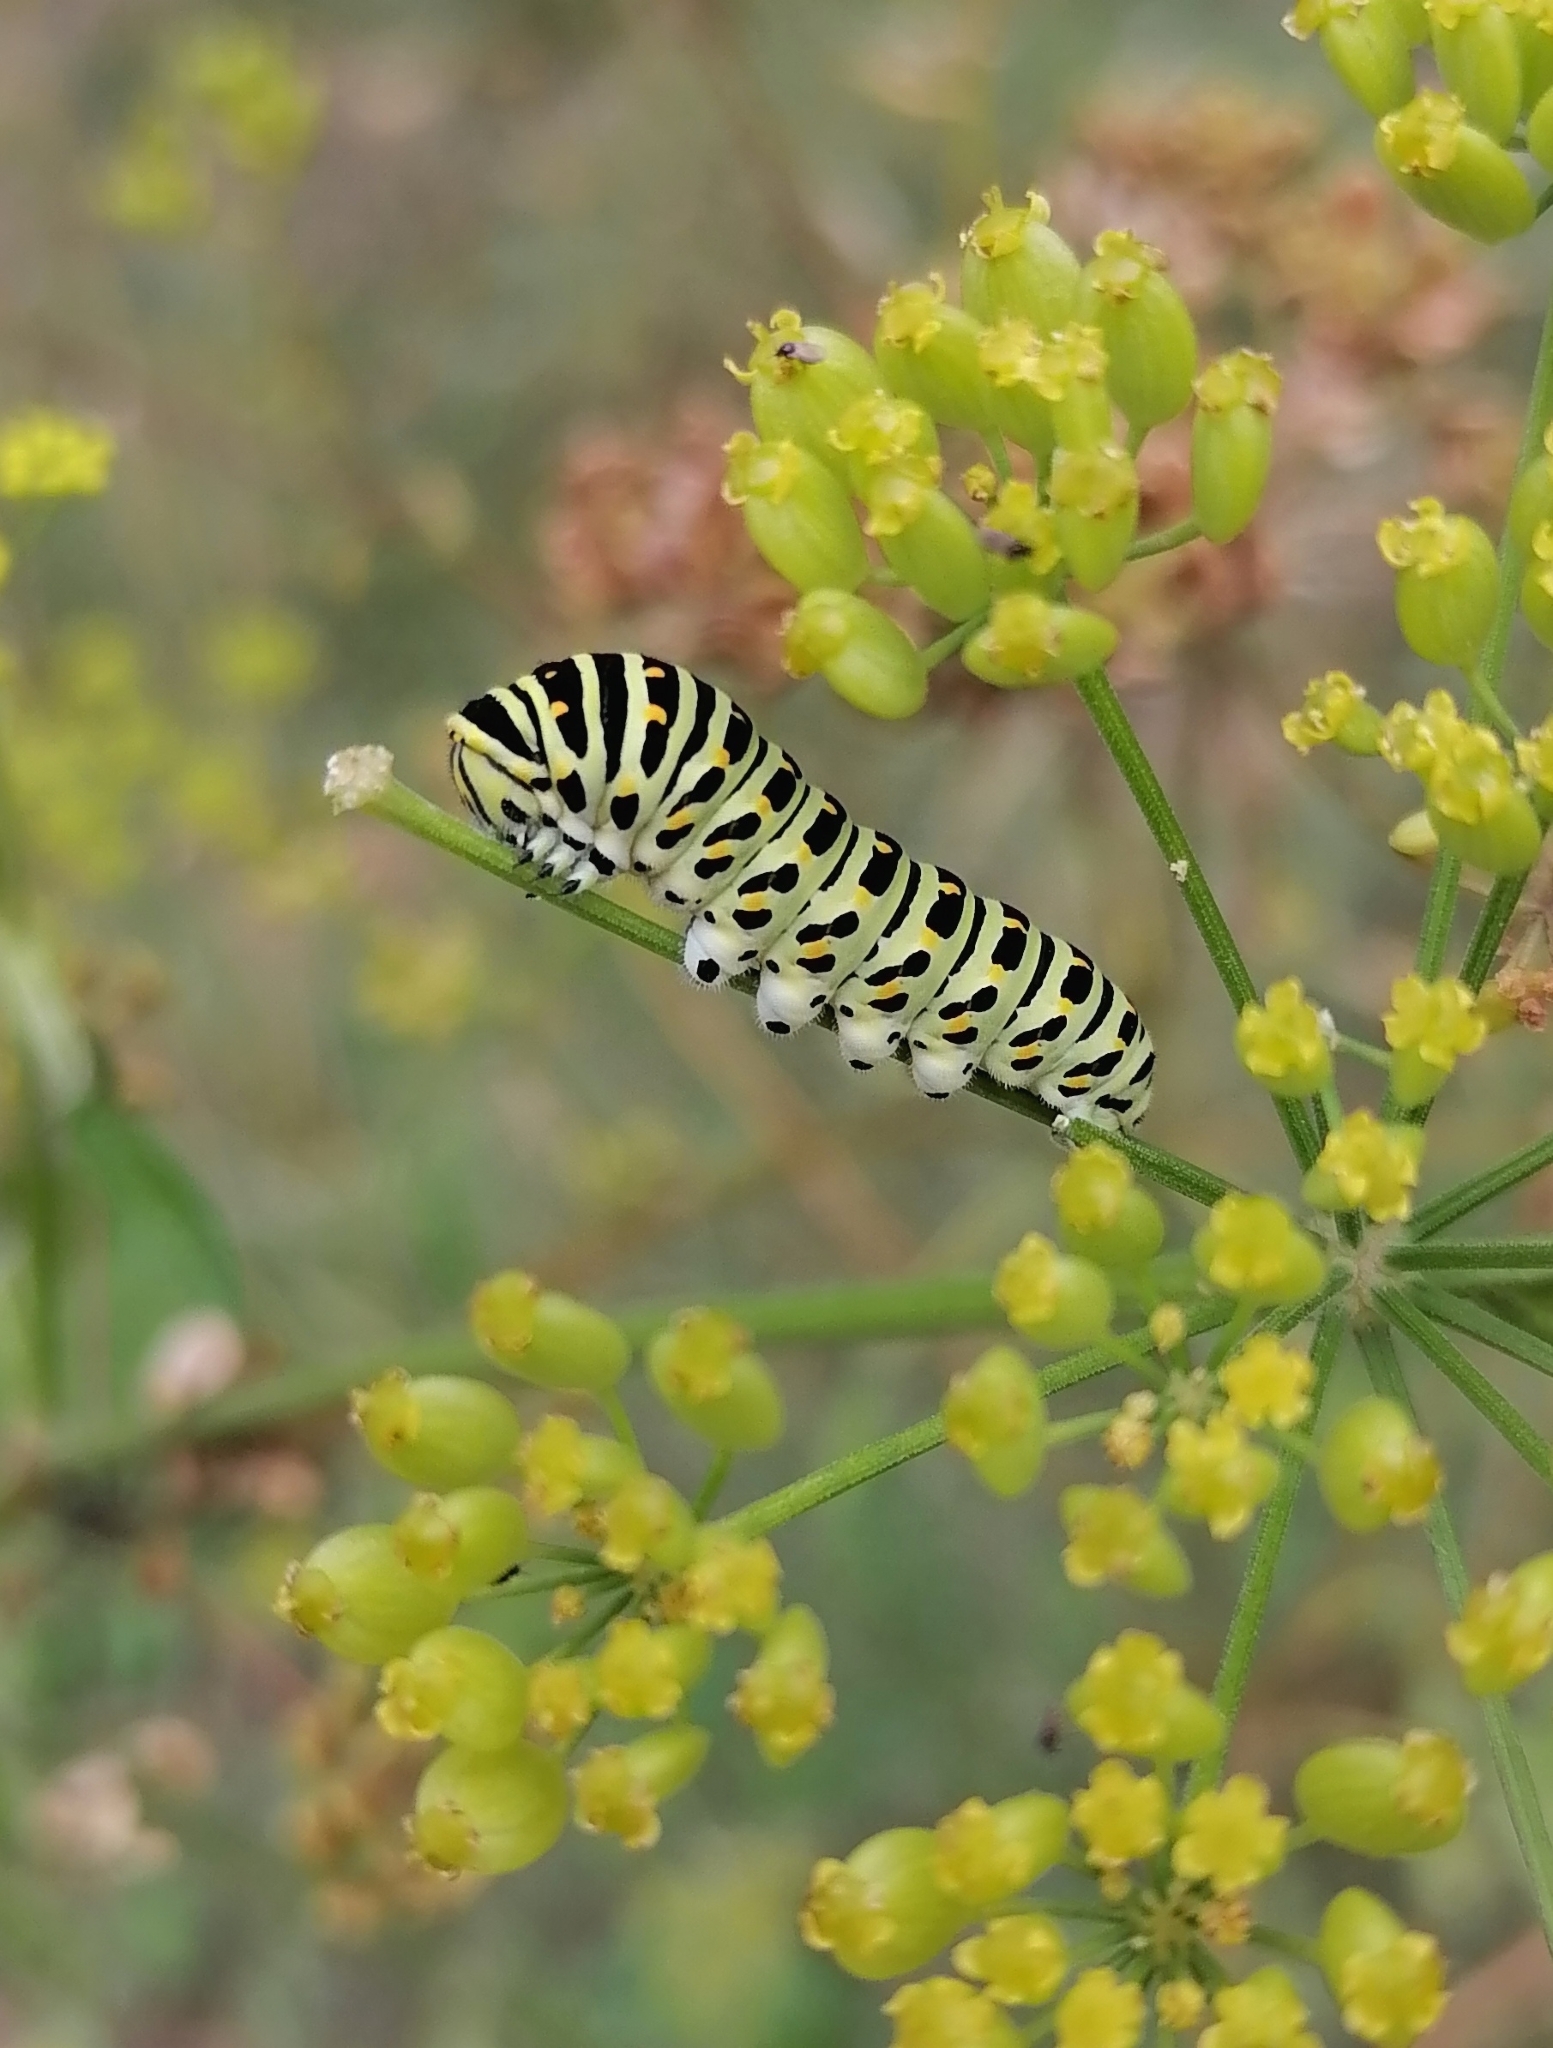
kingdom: Animalia
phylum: Arthropoda
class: Insecta
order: Lepidoptera
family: Papilionidae
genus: Papilio
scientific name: Papilio machaon
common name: Swallowtail
